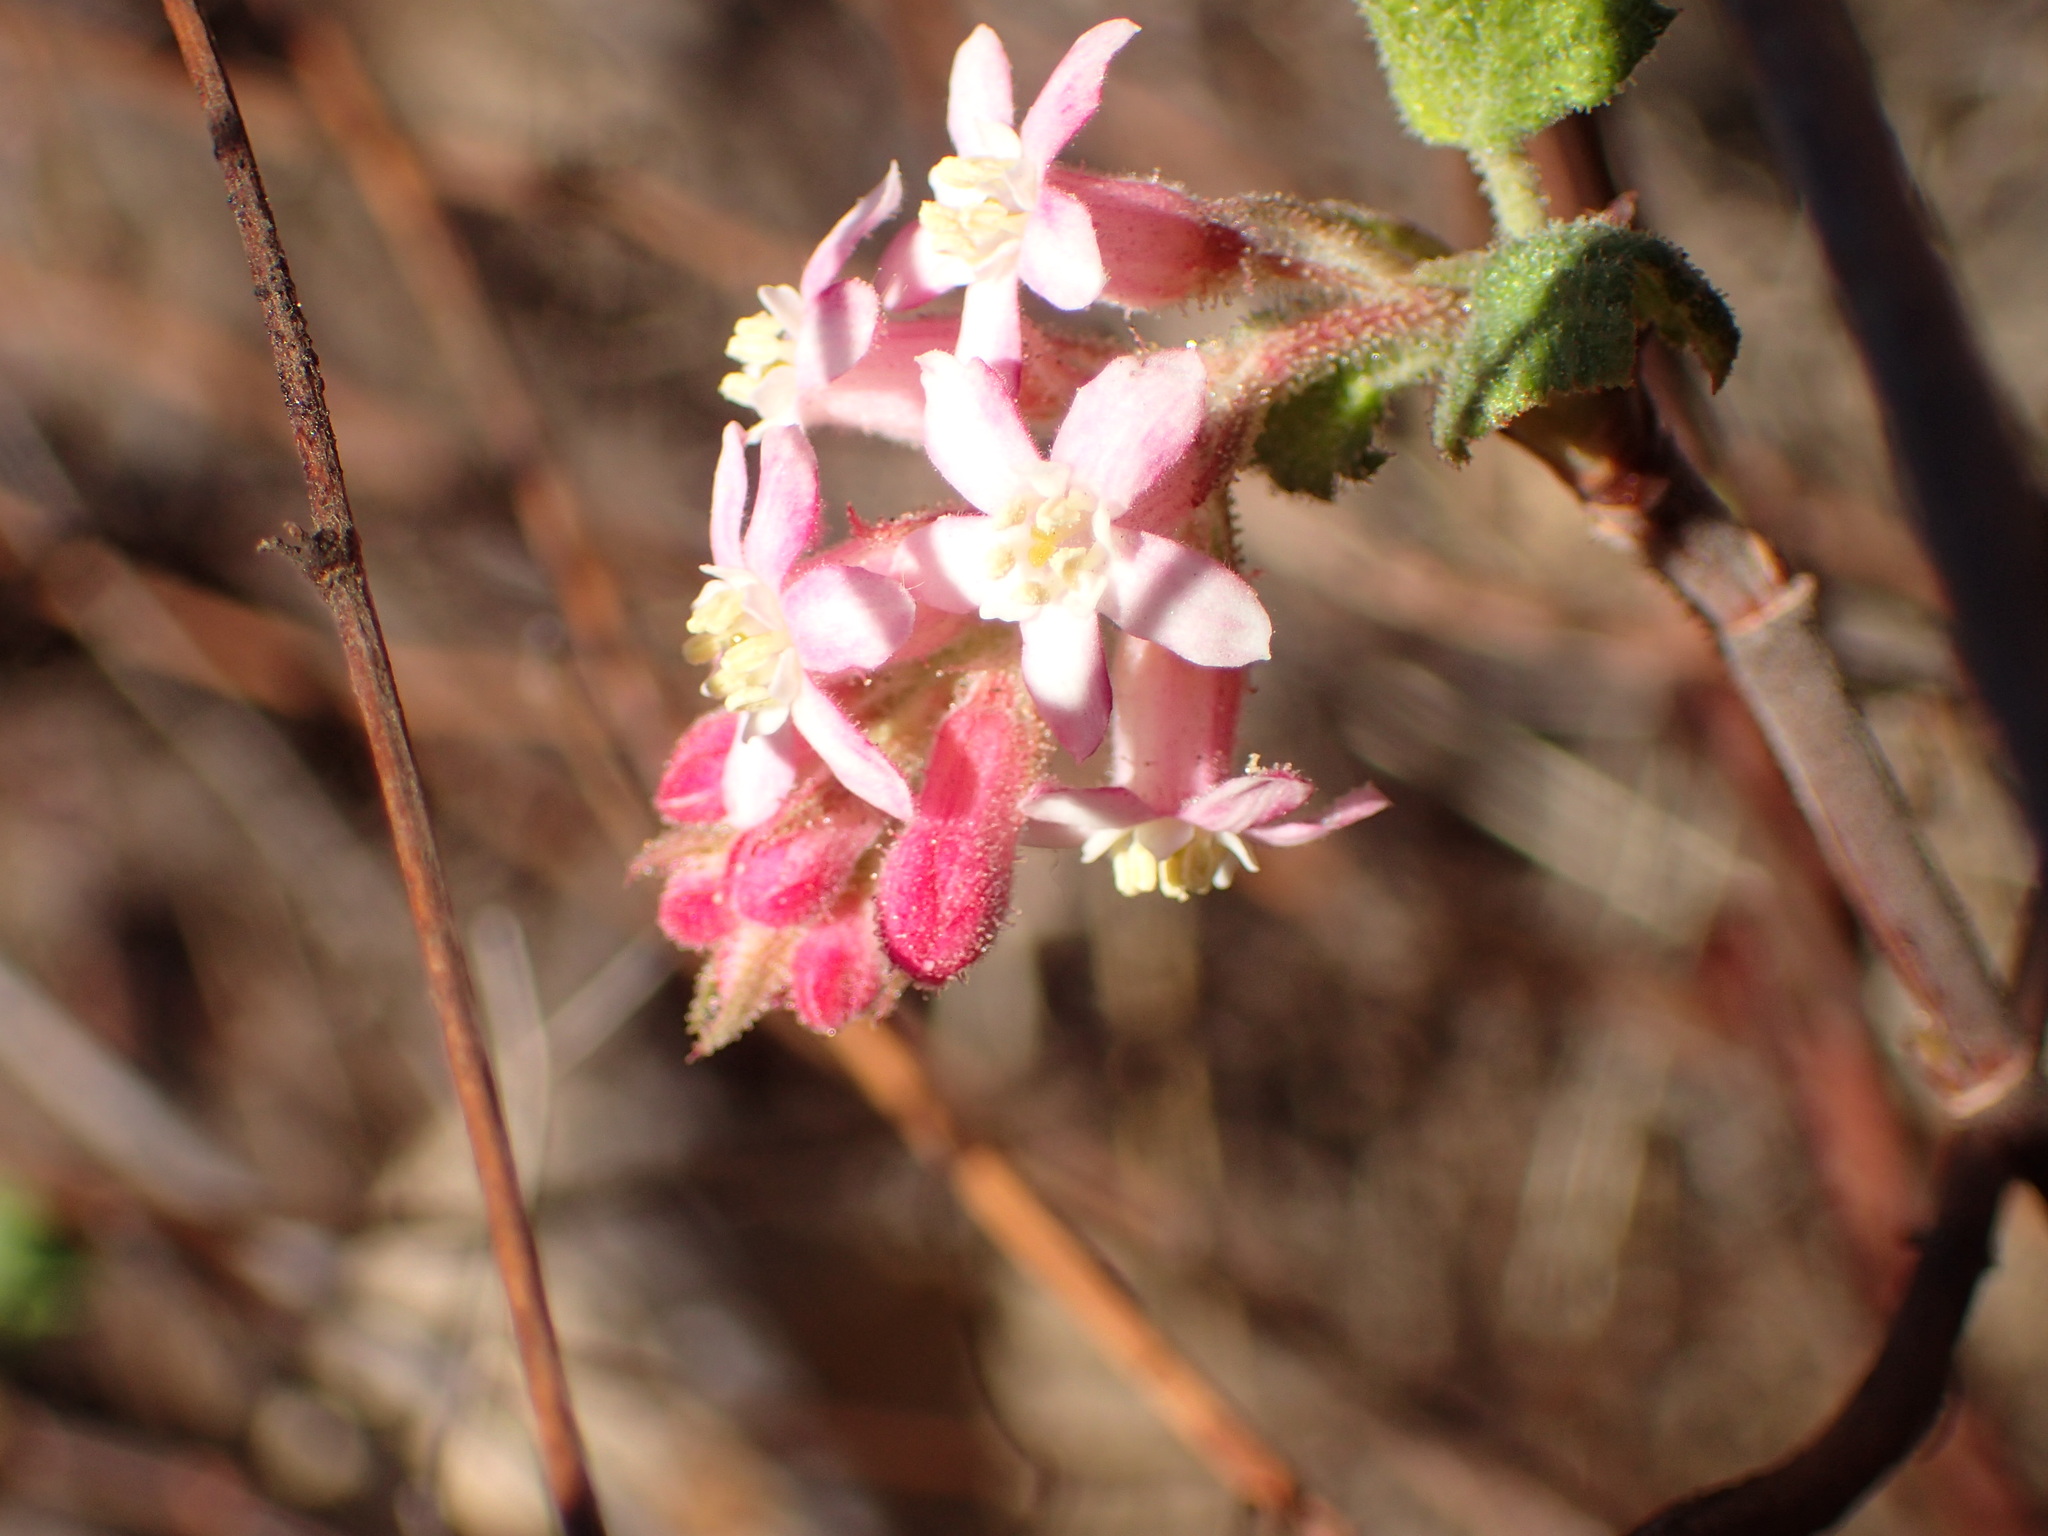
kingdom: Plantae
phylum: Tracheophyta
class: Magnoliopsida
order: Saxifragales
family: Grossulariaceae
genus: Ribes
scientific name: Ribes malvaceum
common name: Chaparral currant
